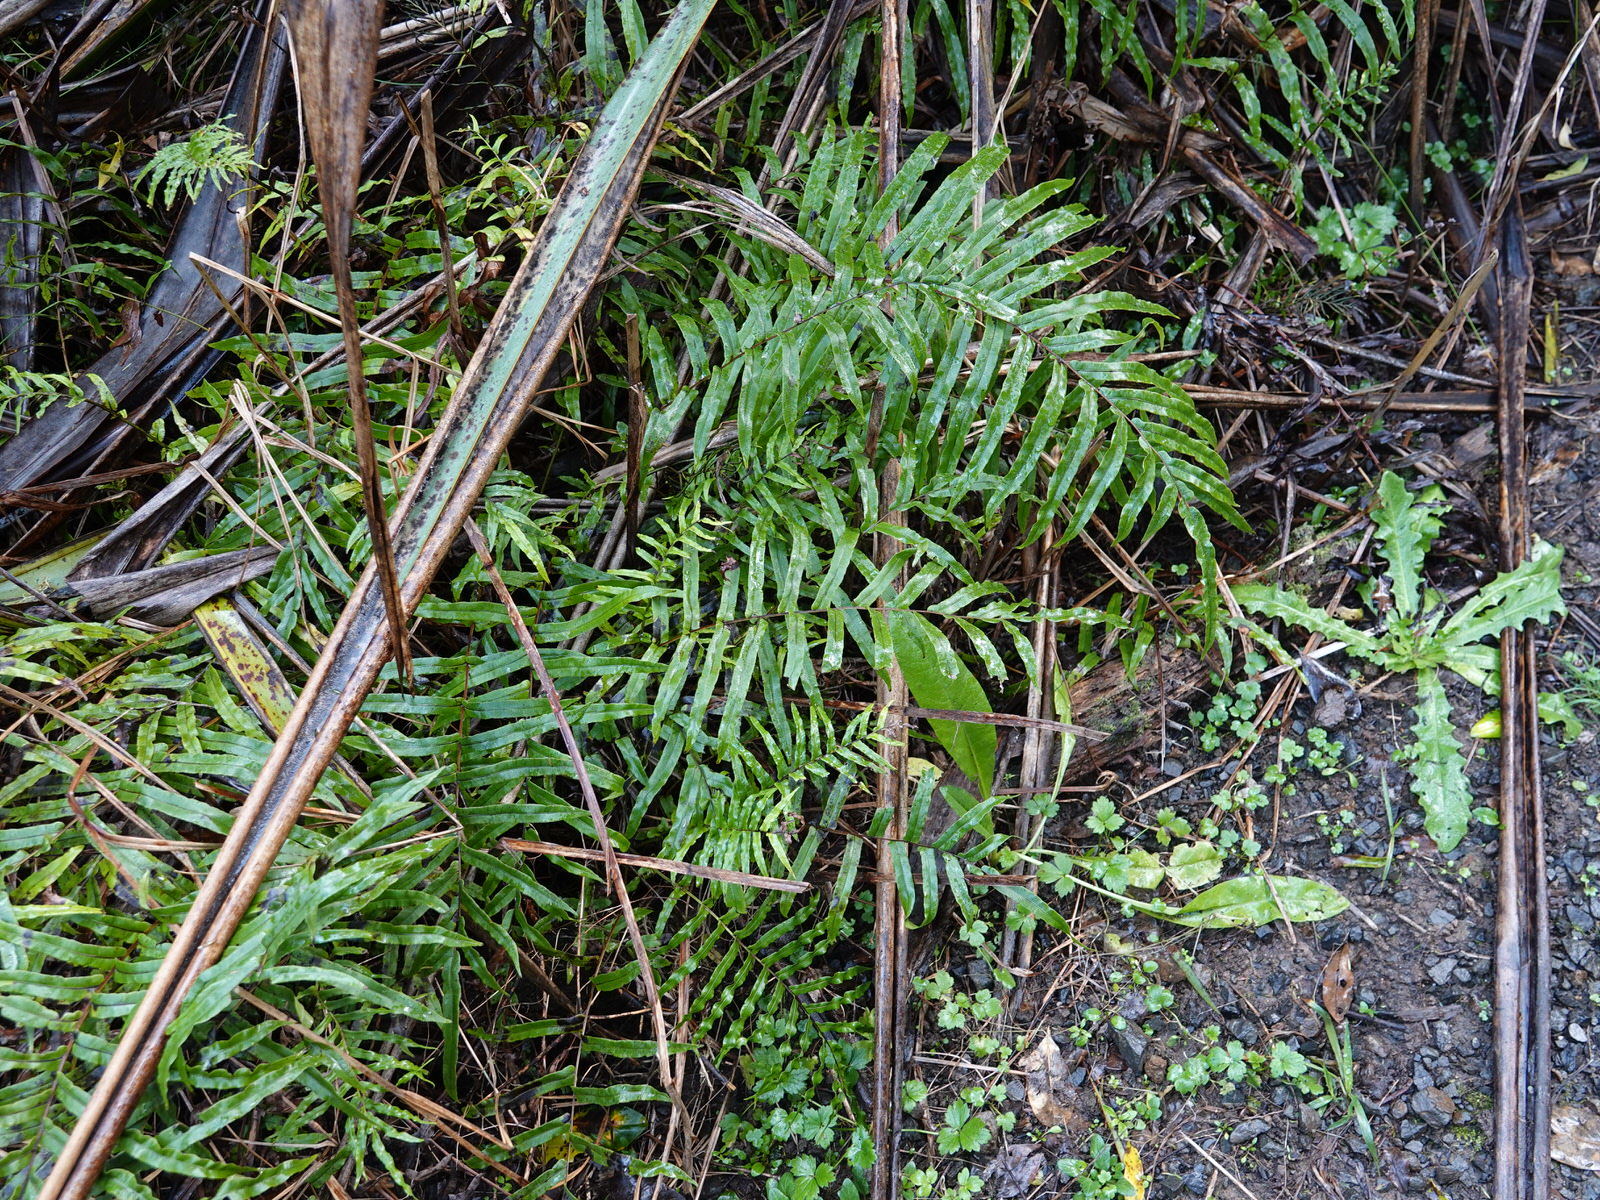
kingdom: Plantae
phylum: Tracheophyta
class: Polypodiopsida
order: Polypodiales
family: Blechnaceae
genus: Parablechnum
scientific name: Parablechnum minus
